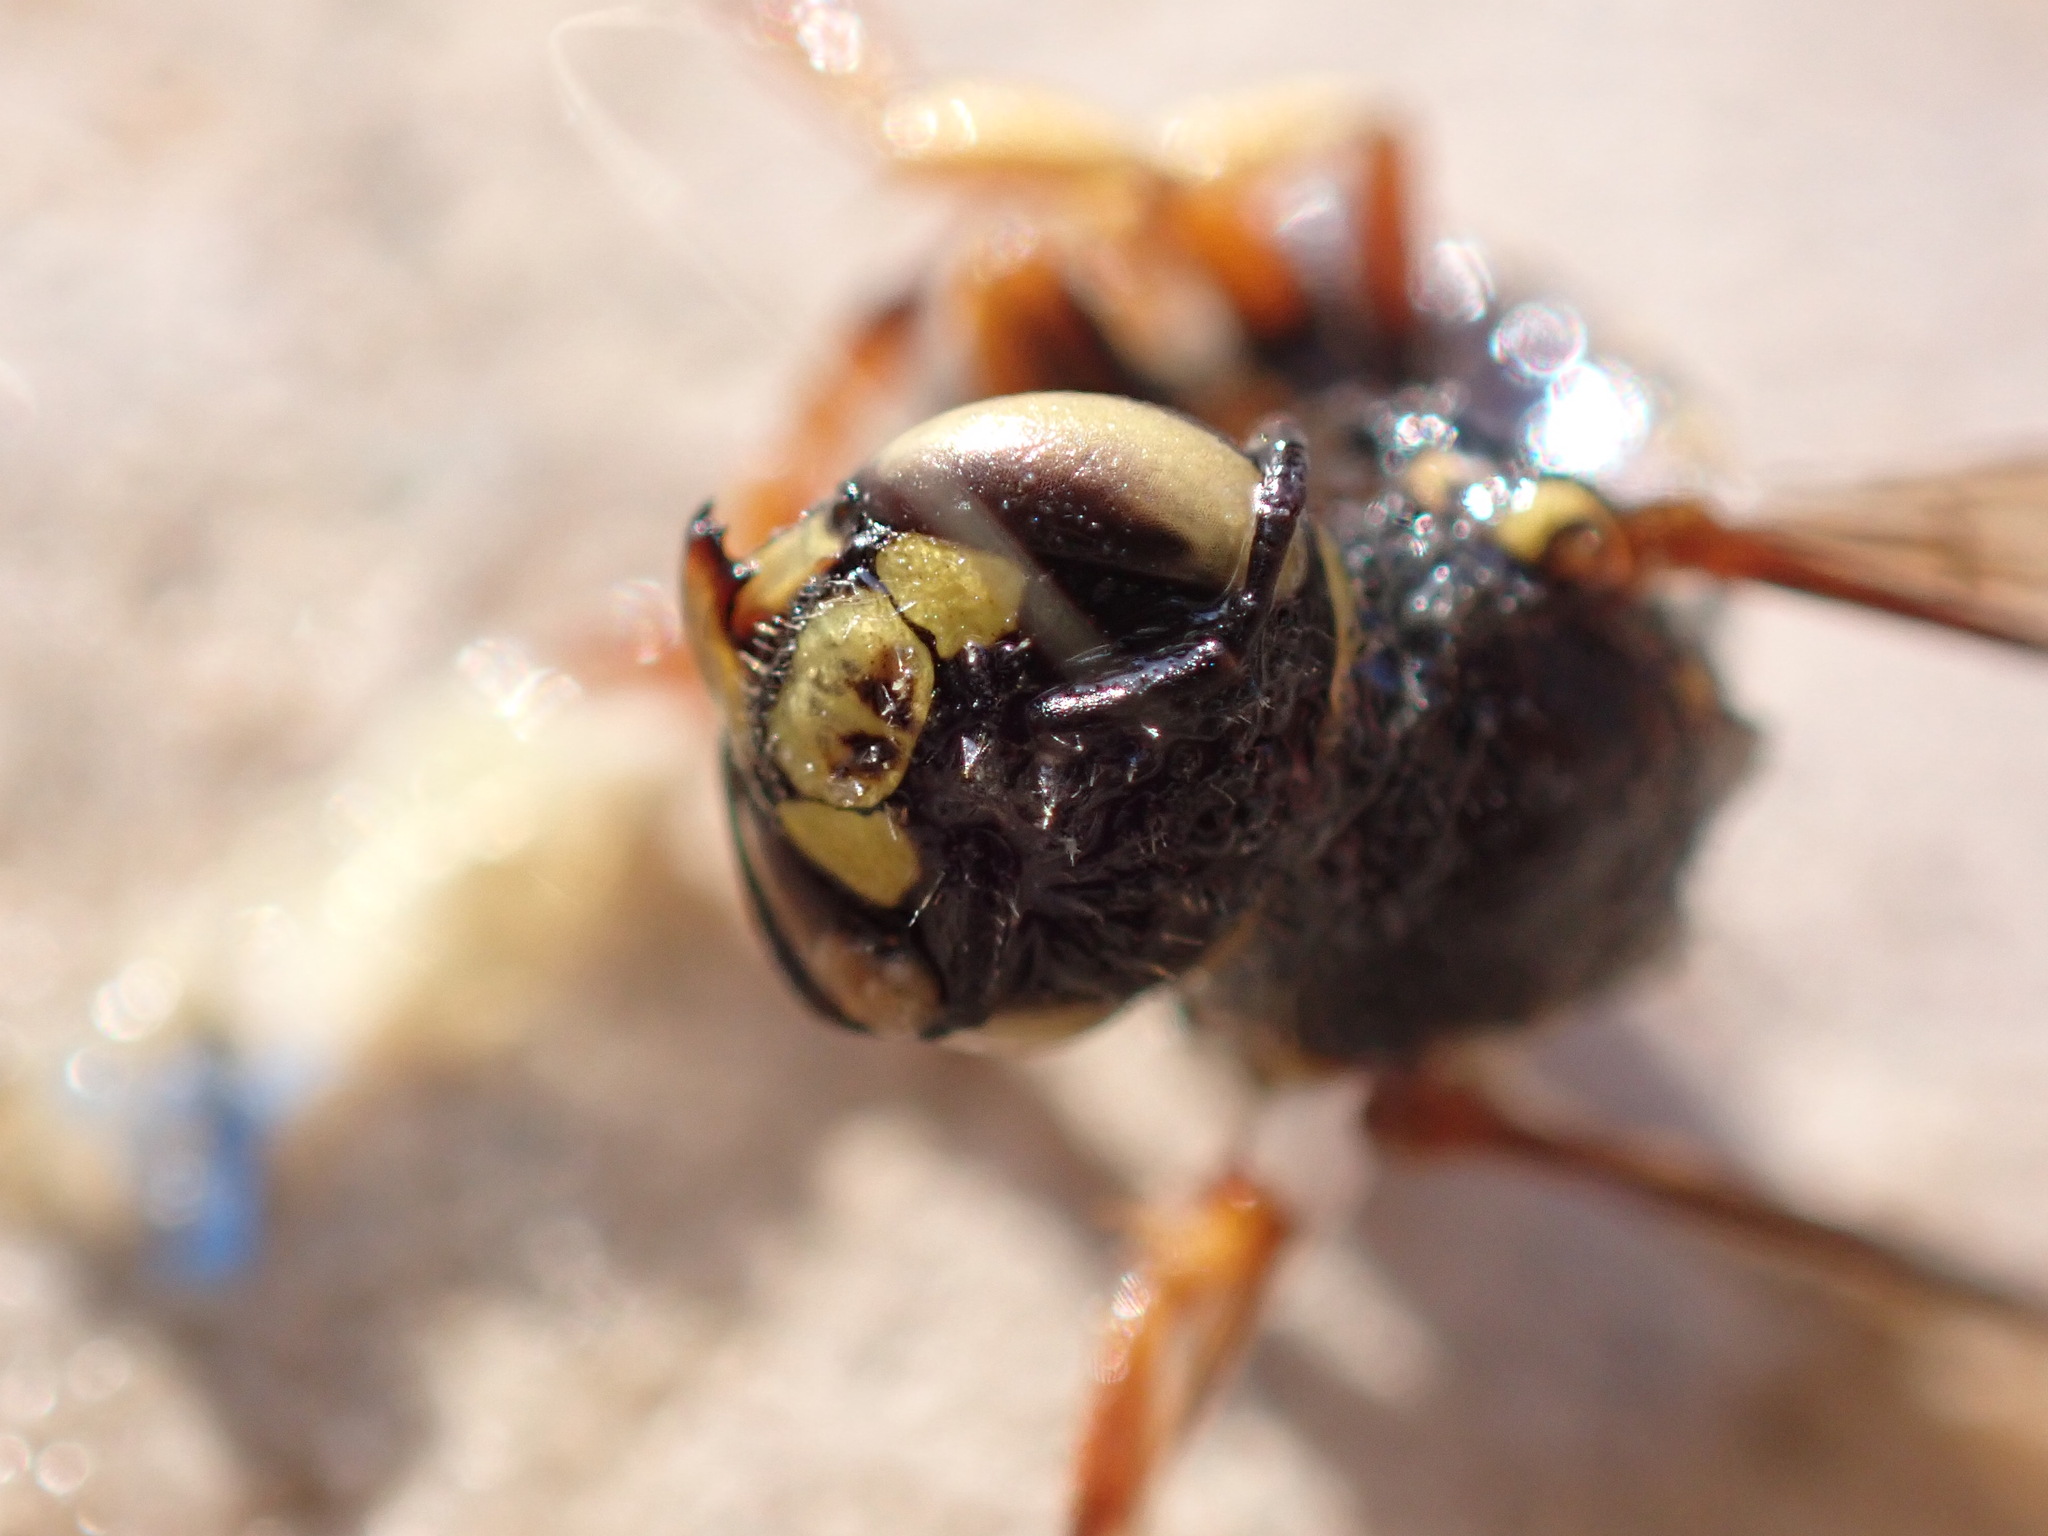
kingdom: Animalia
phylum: Arthropoda
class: Insecta
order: Hymenoptera
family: Megachilidae
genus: Anthidium
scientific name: Anthidium oblongatum
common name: Oblong wool carder bee
